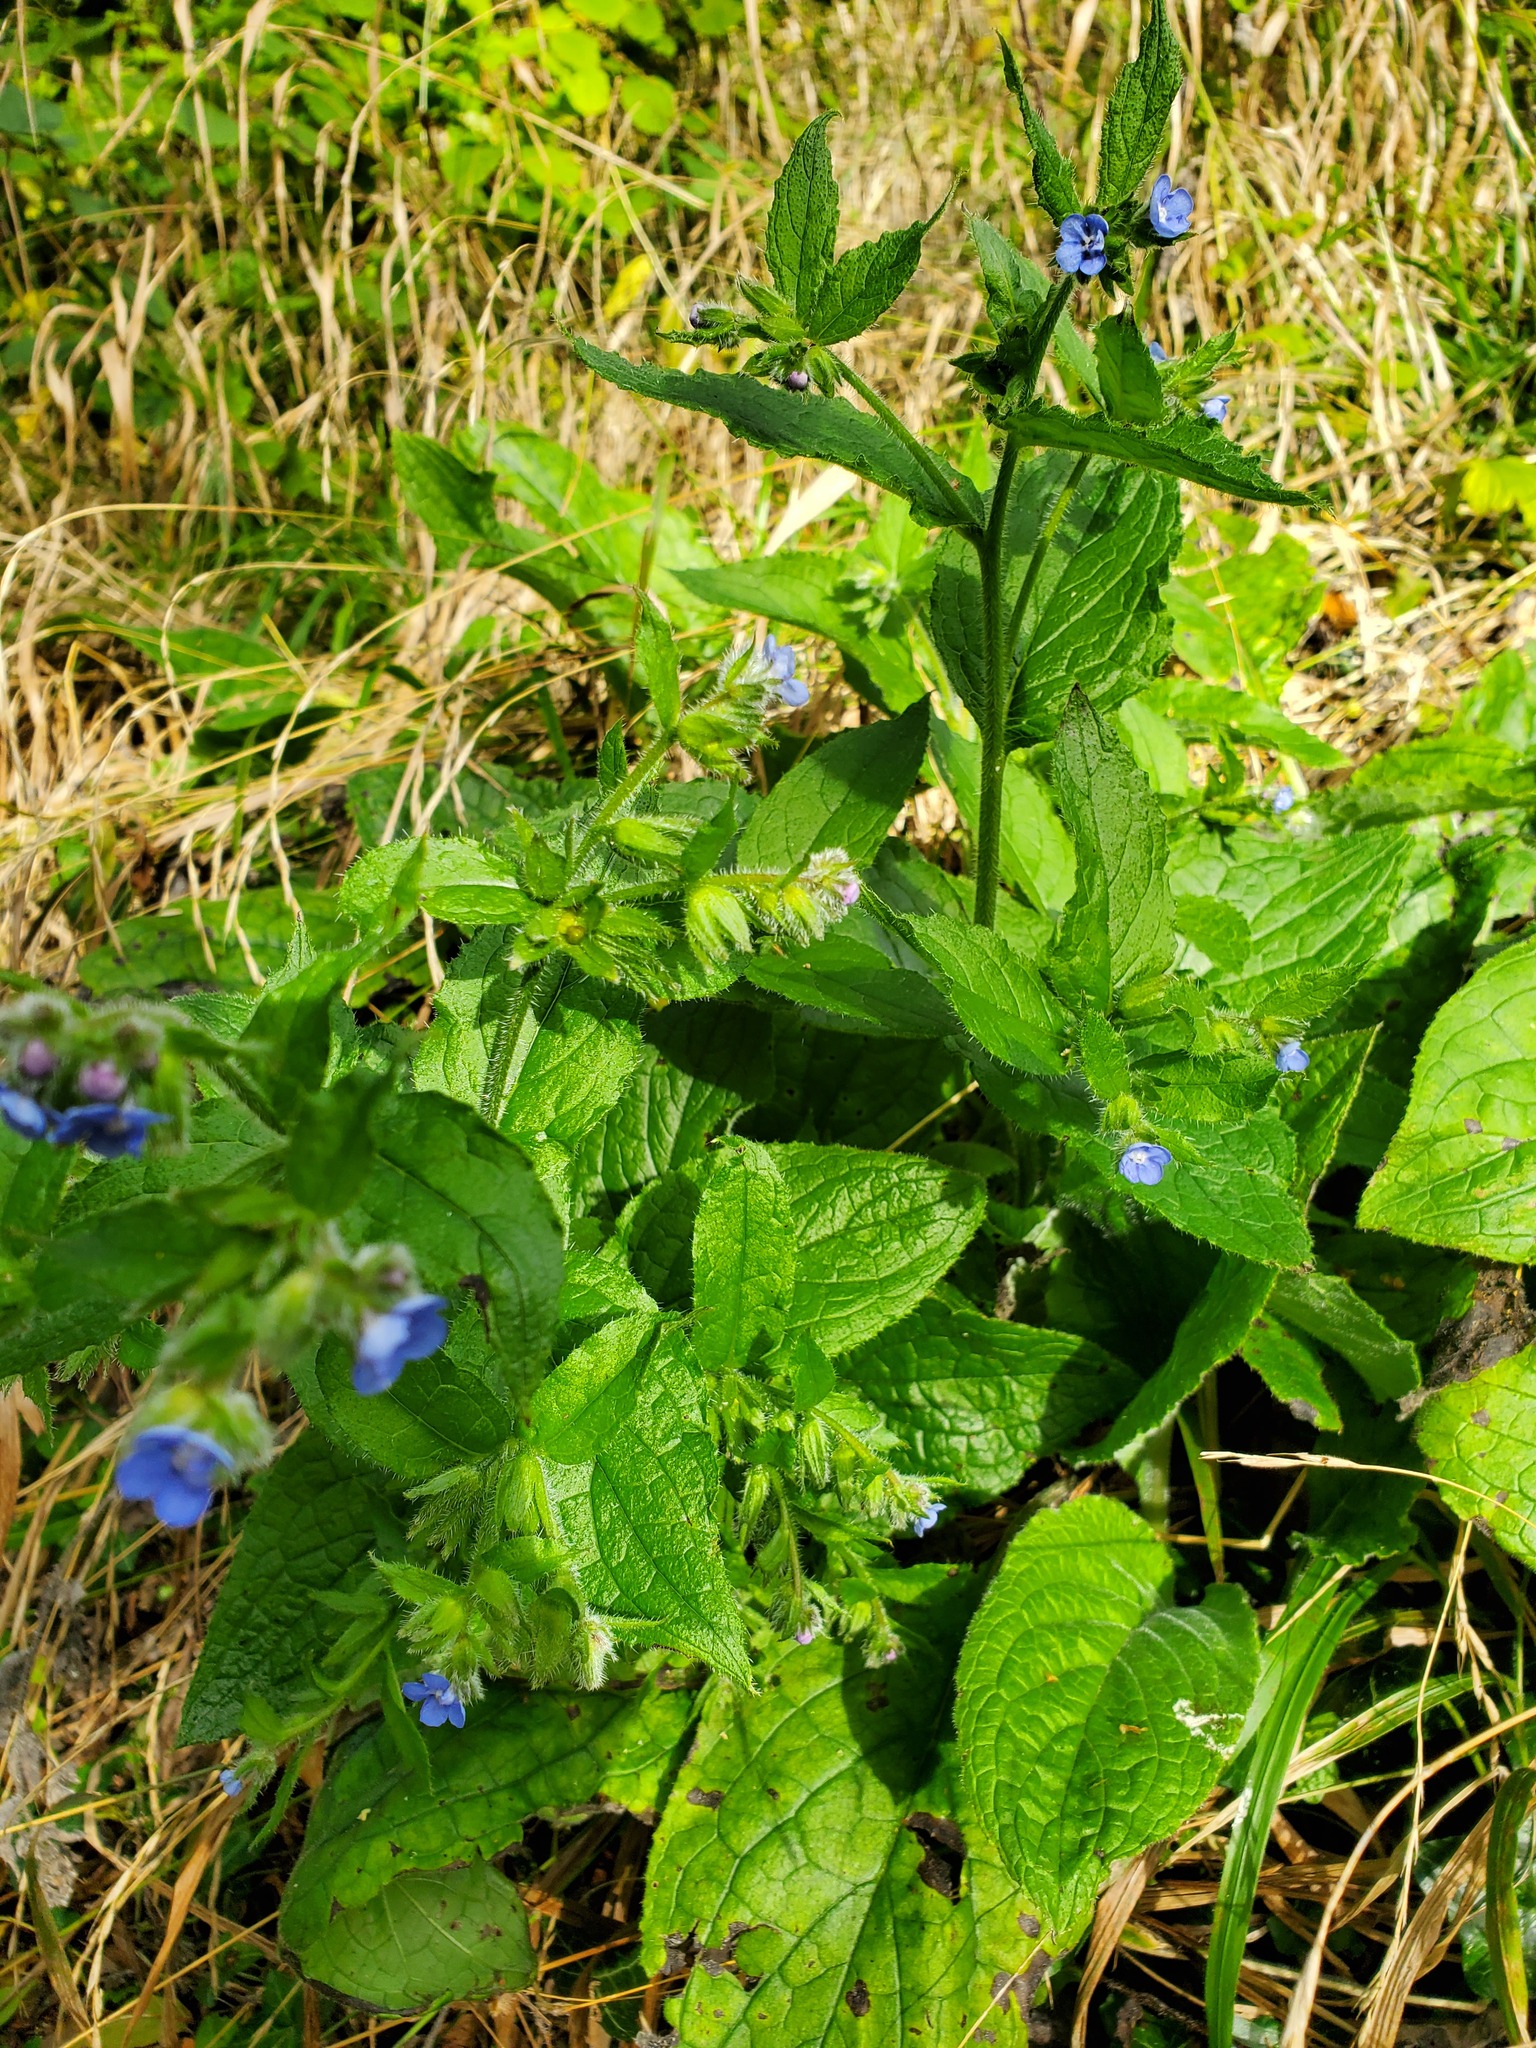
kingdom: Plantae
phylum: Tracheophyta
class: Magnoliopsida
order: Boraginales
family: Boraginaceae
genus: Pentaglottis
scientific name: Pentaglottis sempervirens
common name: Green alkanet
